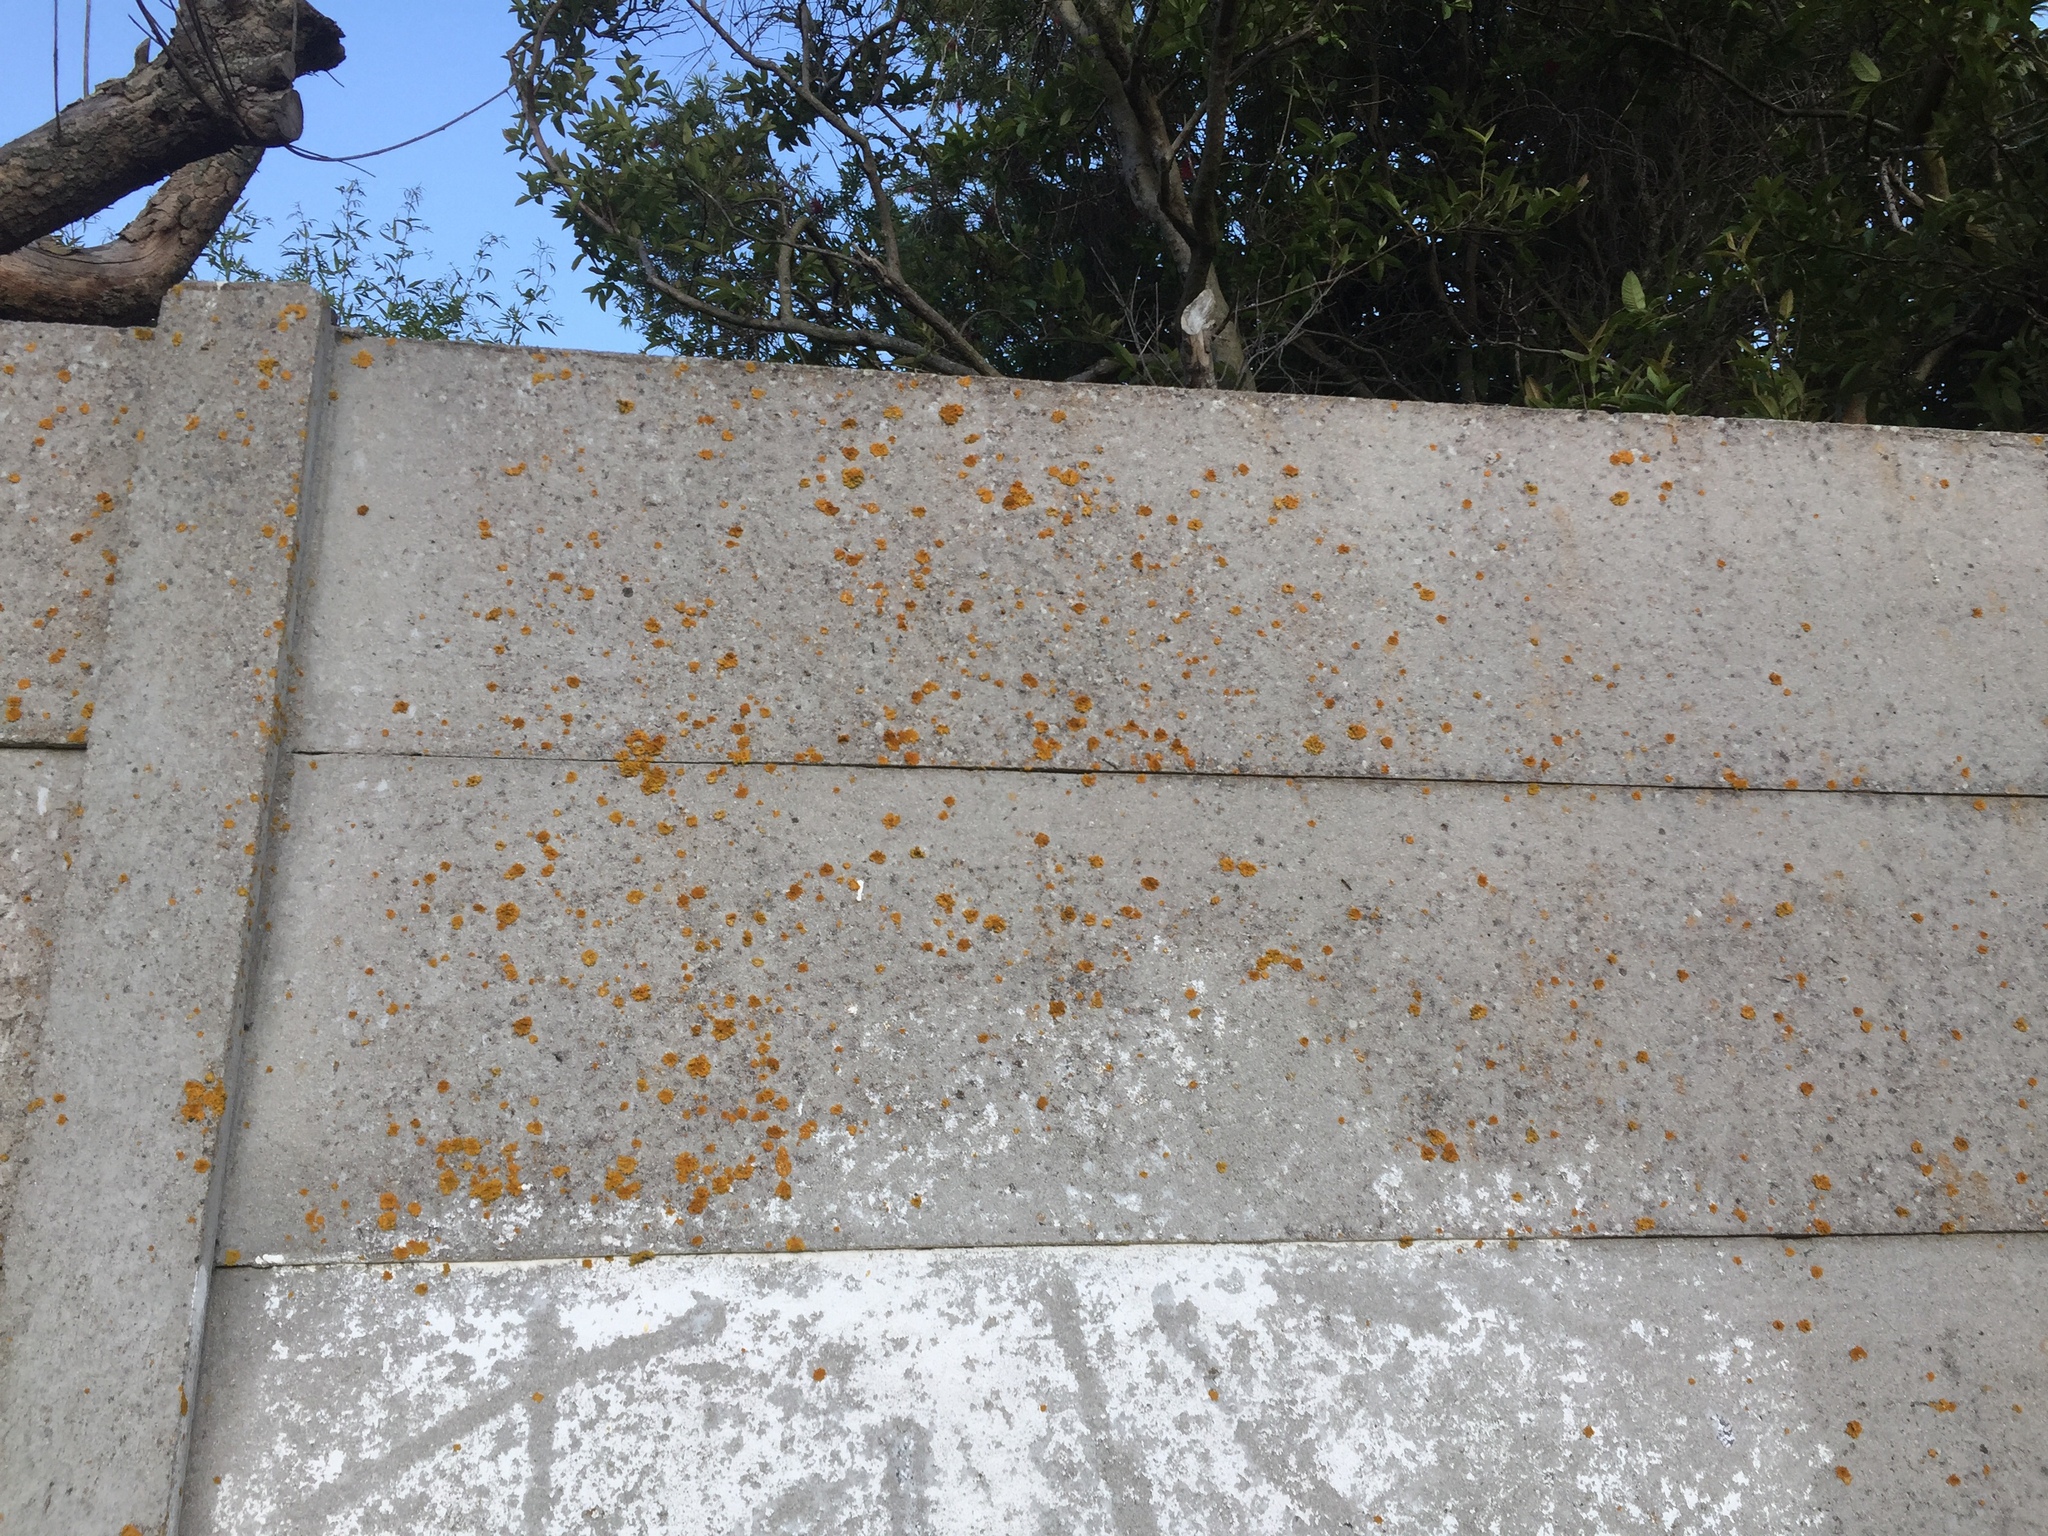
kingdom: Fungi
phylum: Ascomycota
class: Lecanoromycetes
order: Teloschistales
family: Teloschistaceae
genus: Xanthoria
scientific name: Xanthoria parietina
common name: Common orange lichen
